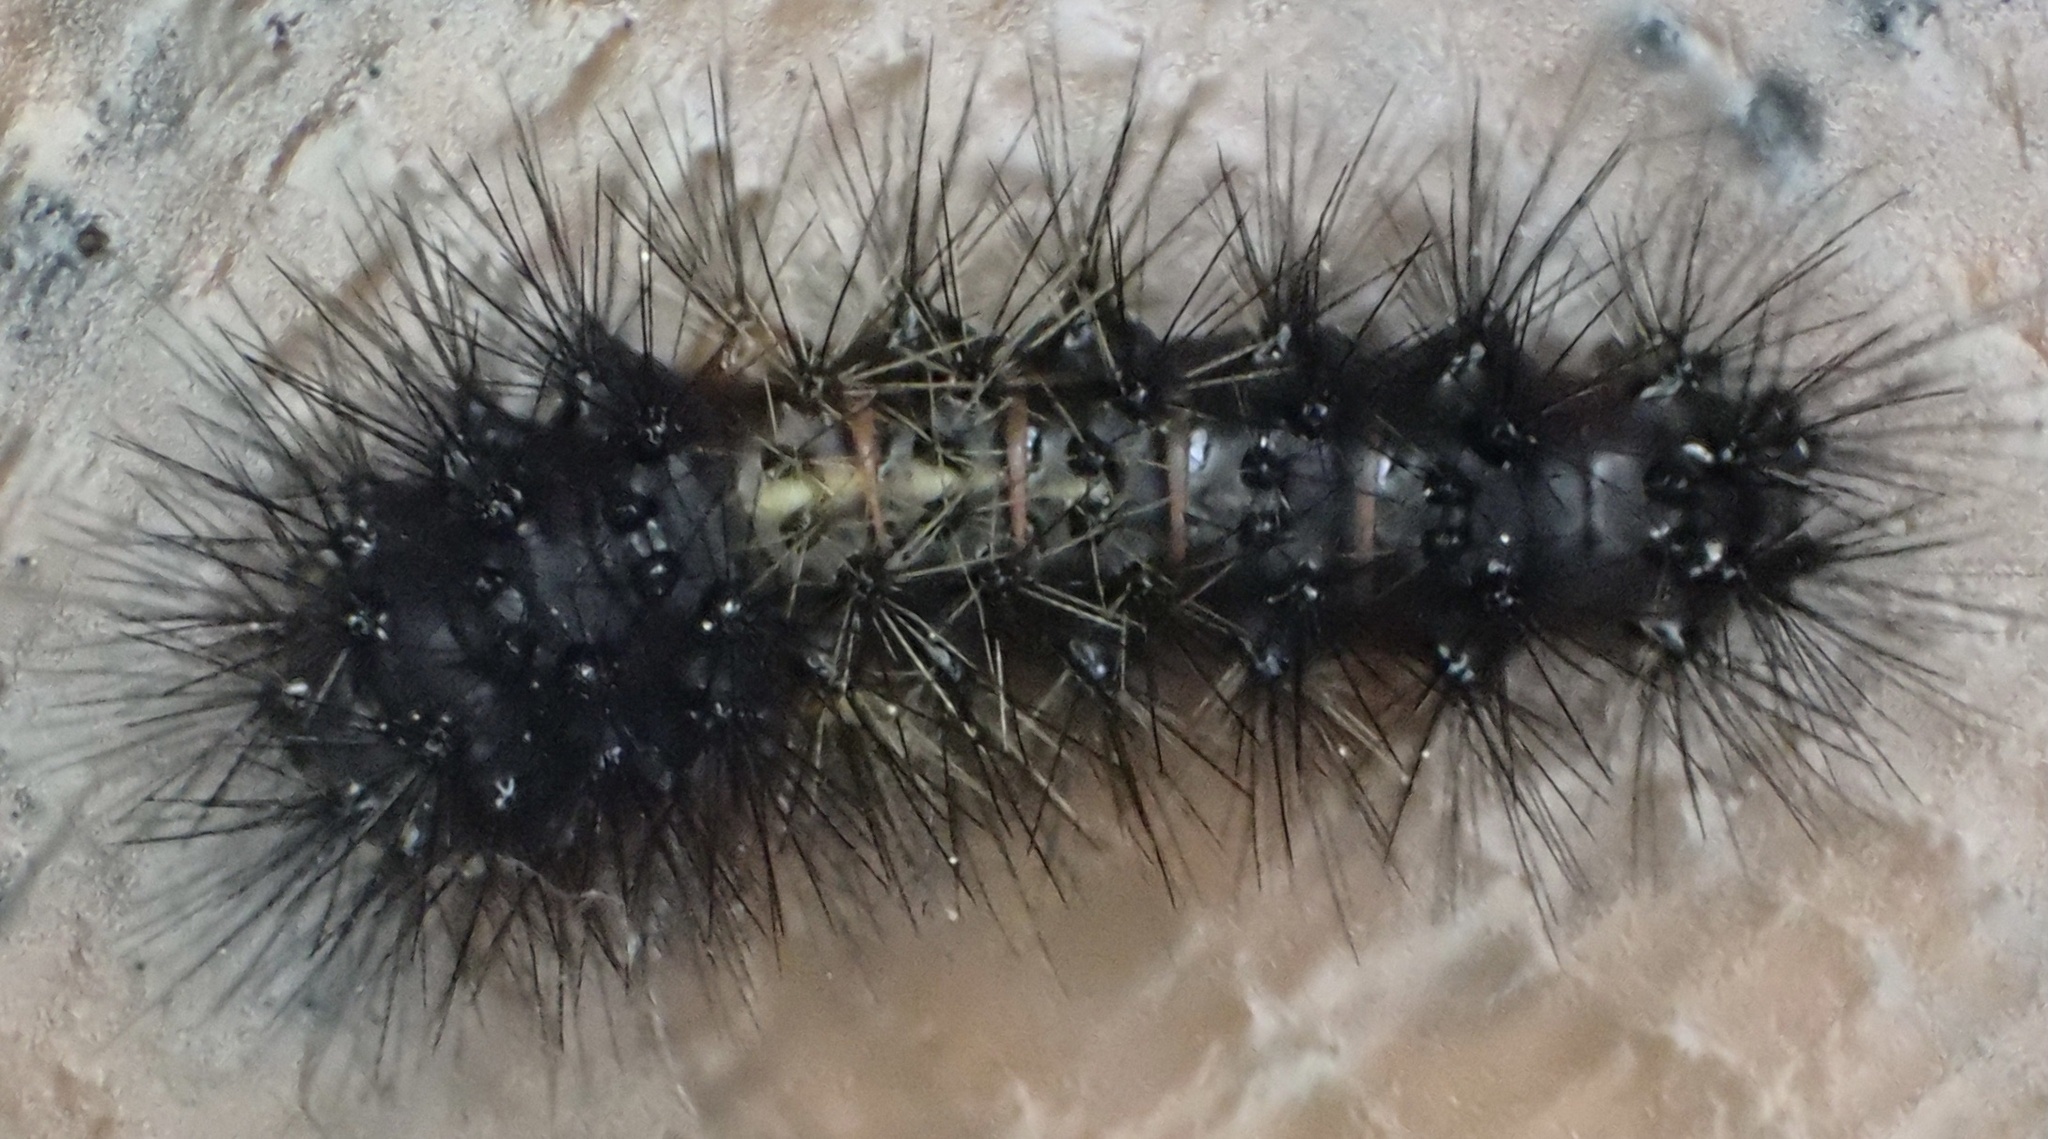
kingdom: Animalia
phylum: Arthropoda
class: Insecta
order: Lepidoptera
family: Erebidae
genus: Hypercompe
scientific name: Hypercompe scribonia
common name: Giant leopard moth
